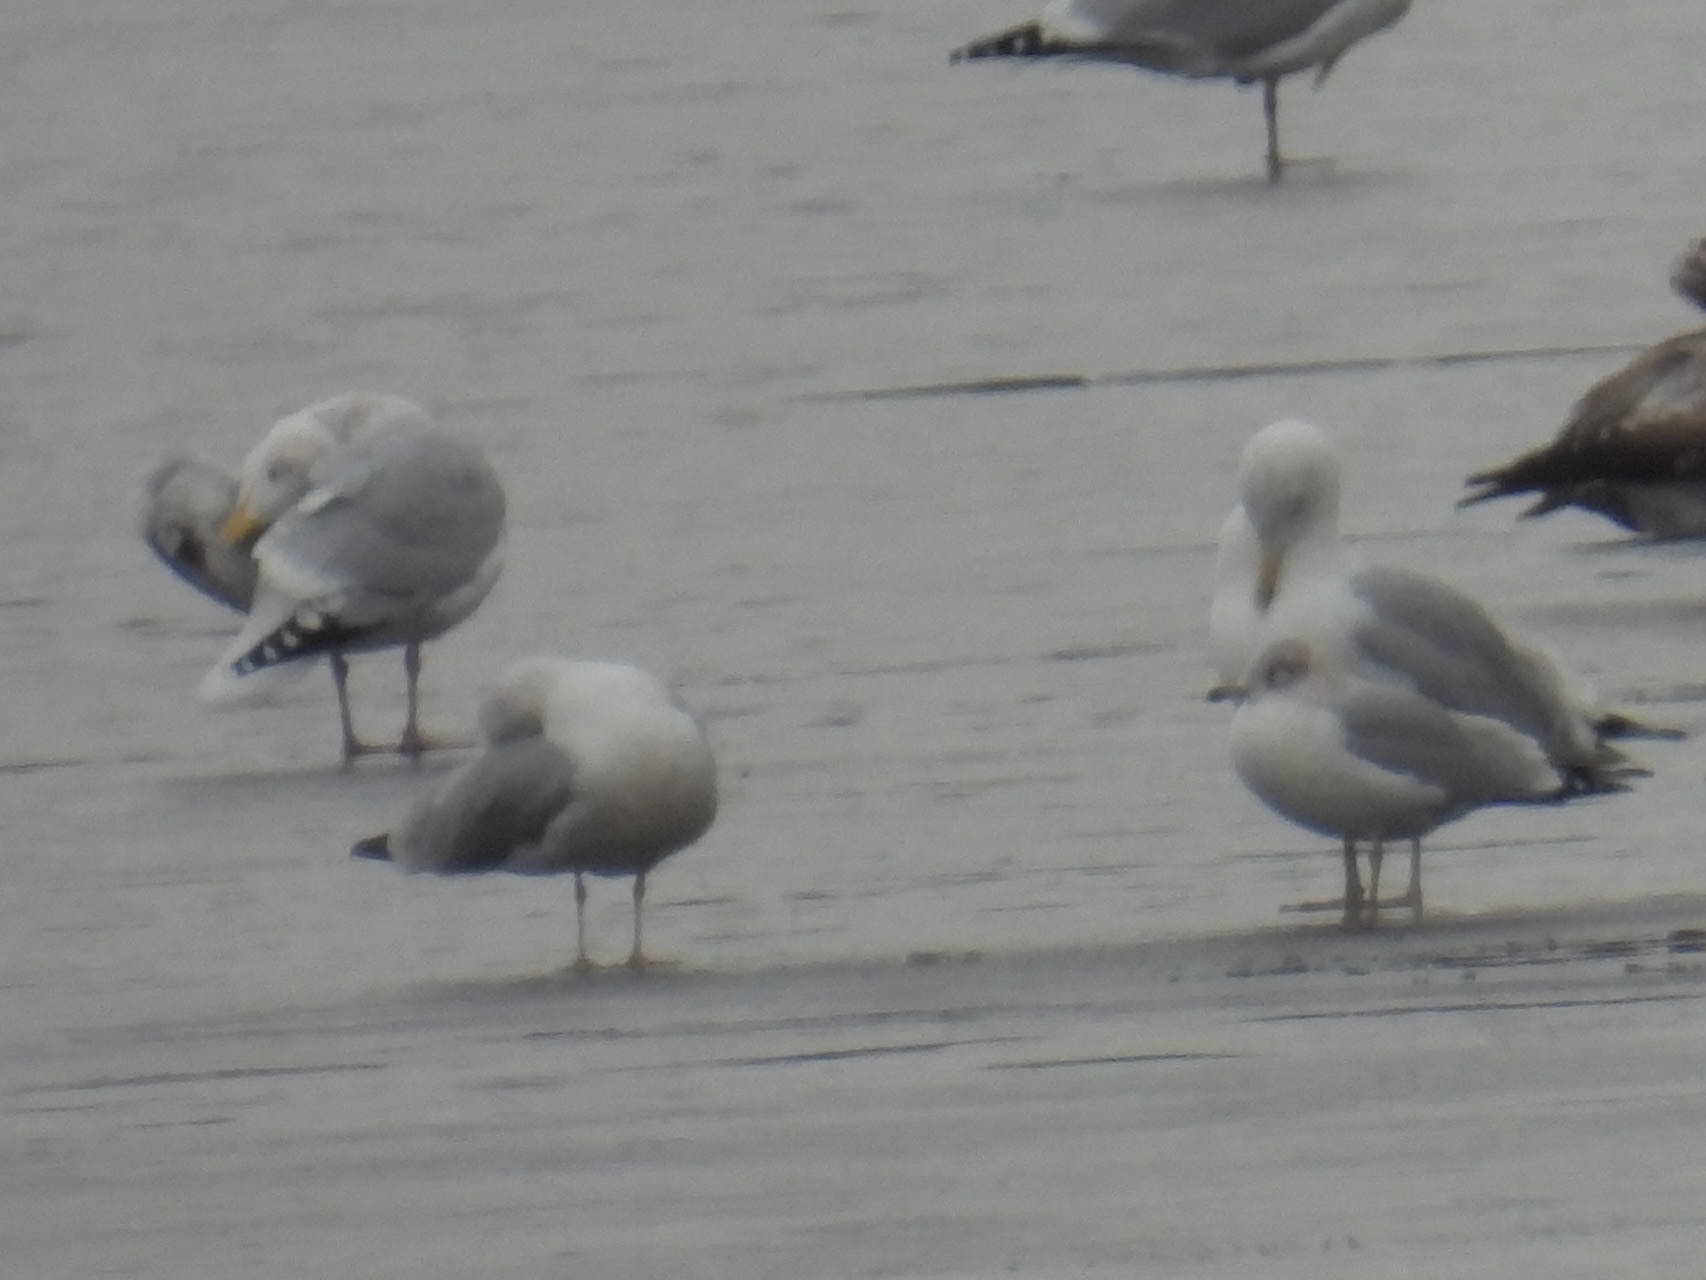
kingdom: Animalia
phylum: Chordata
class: Aves
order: Charadriiformes
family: Laridae
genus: Larus
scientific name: Larus argentatus
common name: Herring gull
